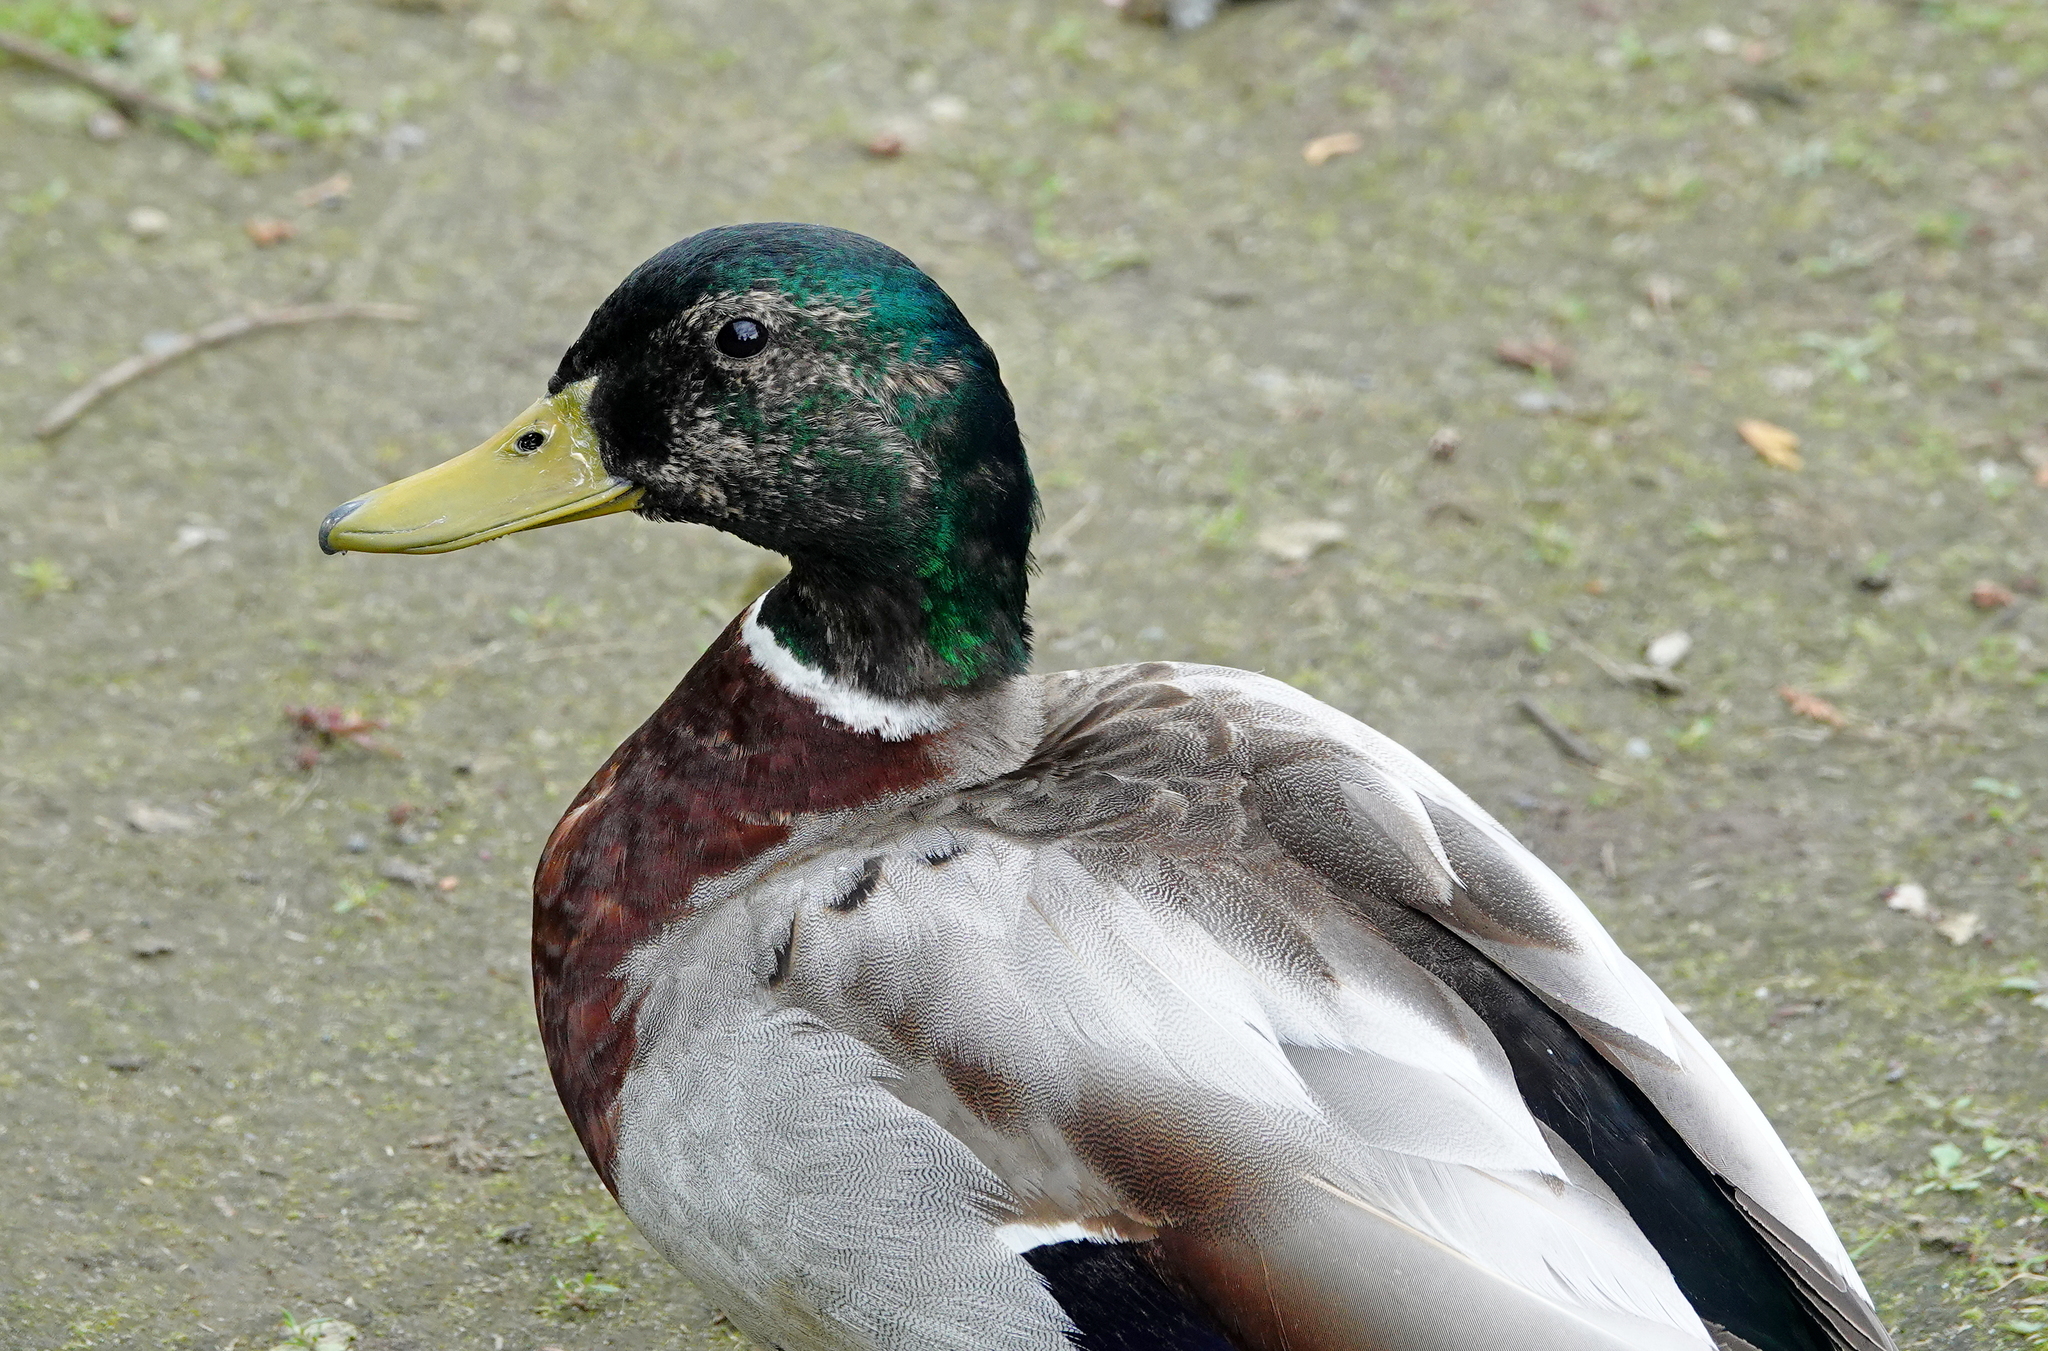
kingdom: Animalia
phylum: Chordata
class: Aves
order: Anseriformes
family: Anatidae
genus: Anas
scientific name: Anas platyrhynchos
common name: Mallard
